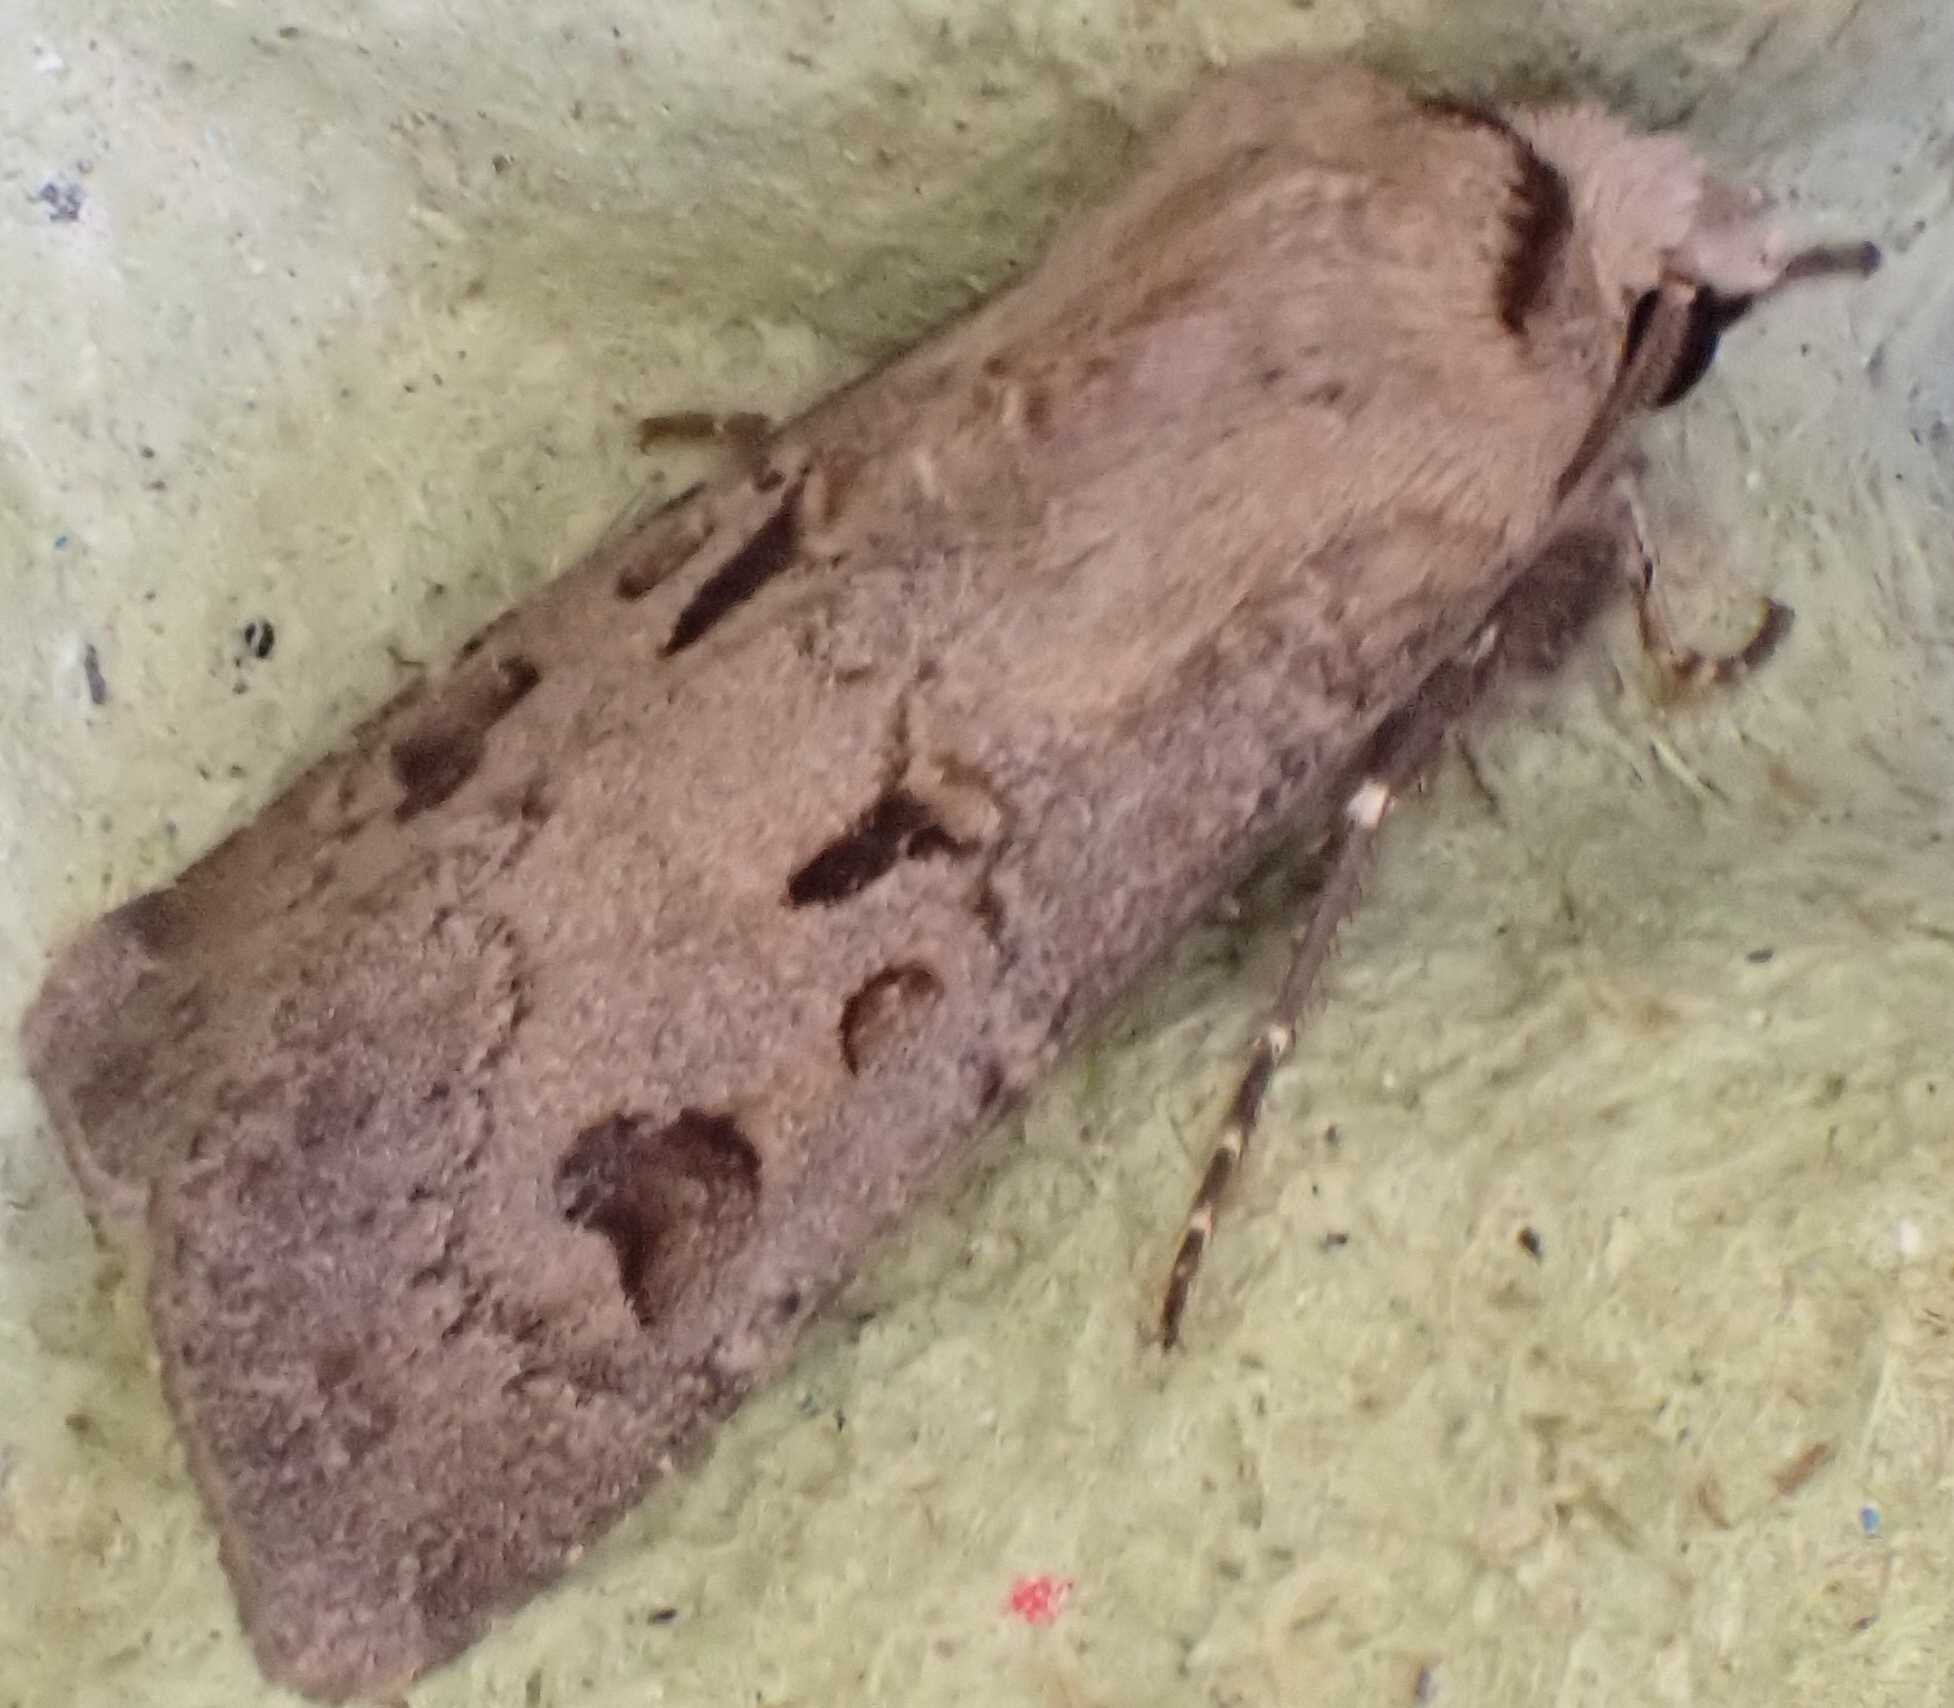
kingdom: Animalia
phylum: Arthropoda
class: Insecta
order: Lepidoptera
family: Noctuidae
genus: Agrotis
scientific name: Agrotis exclamationis
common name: Heart and dart
